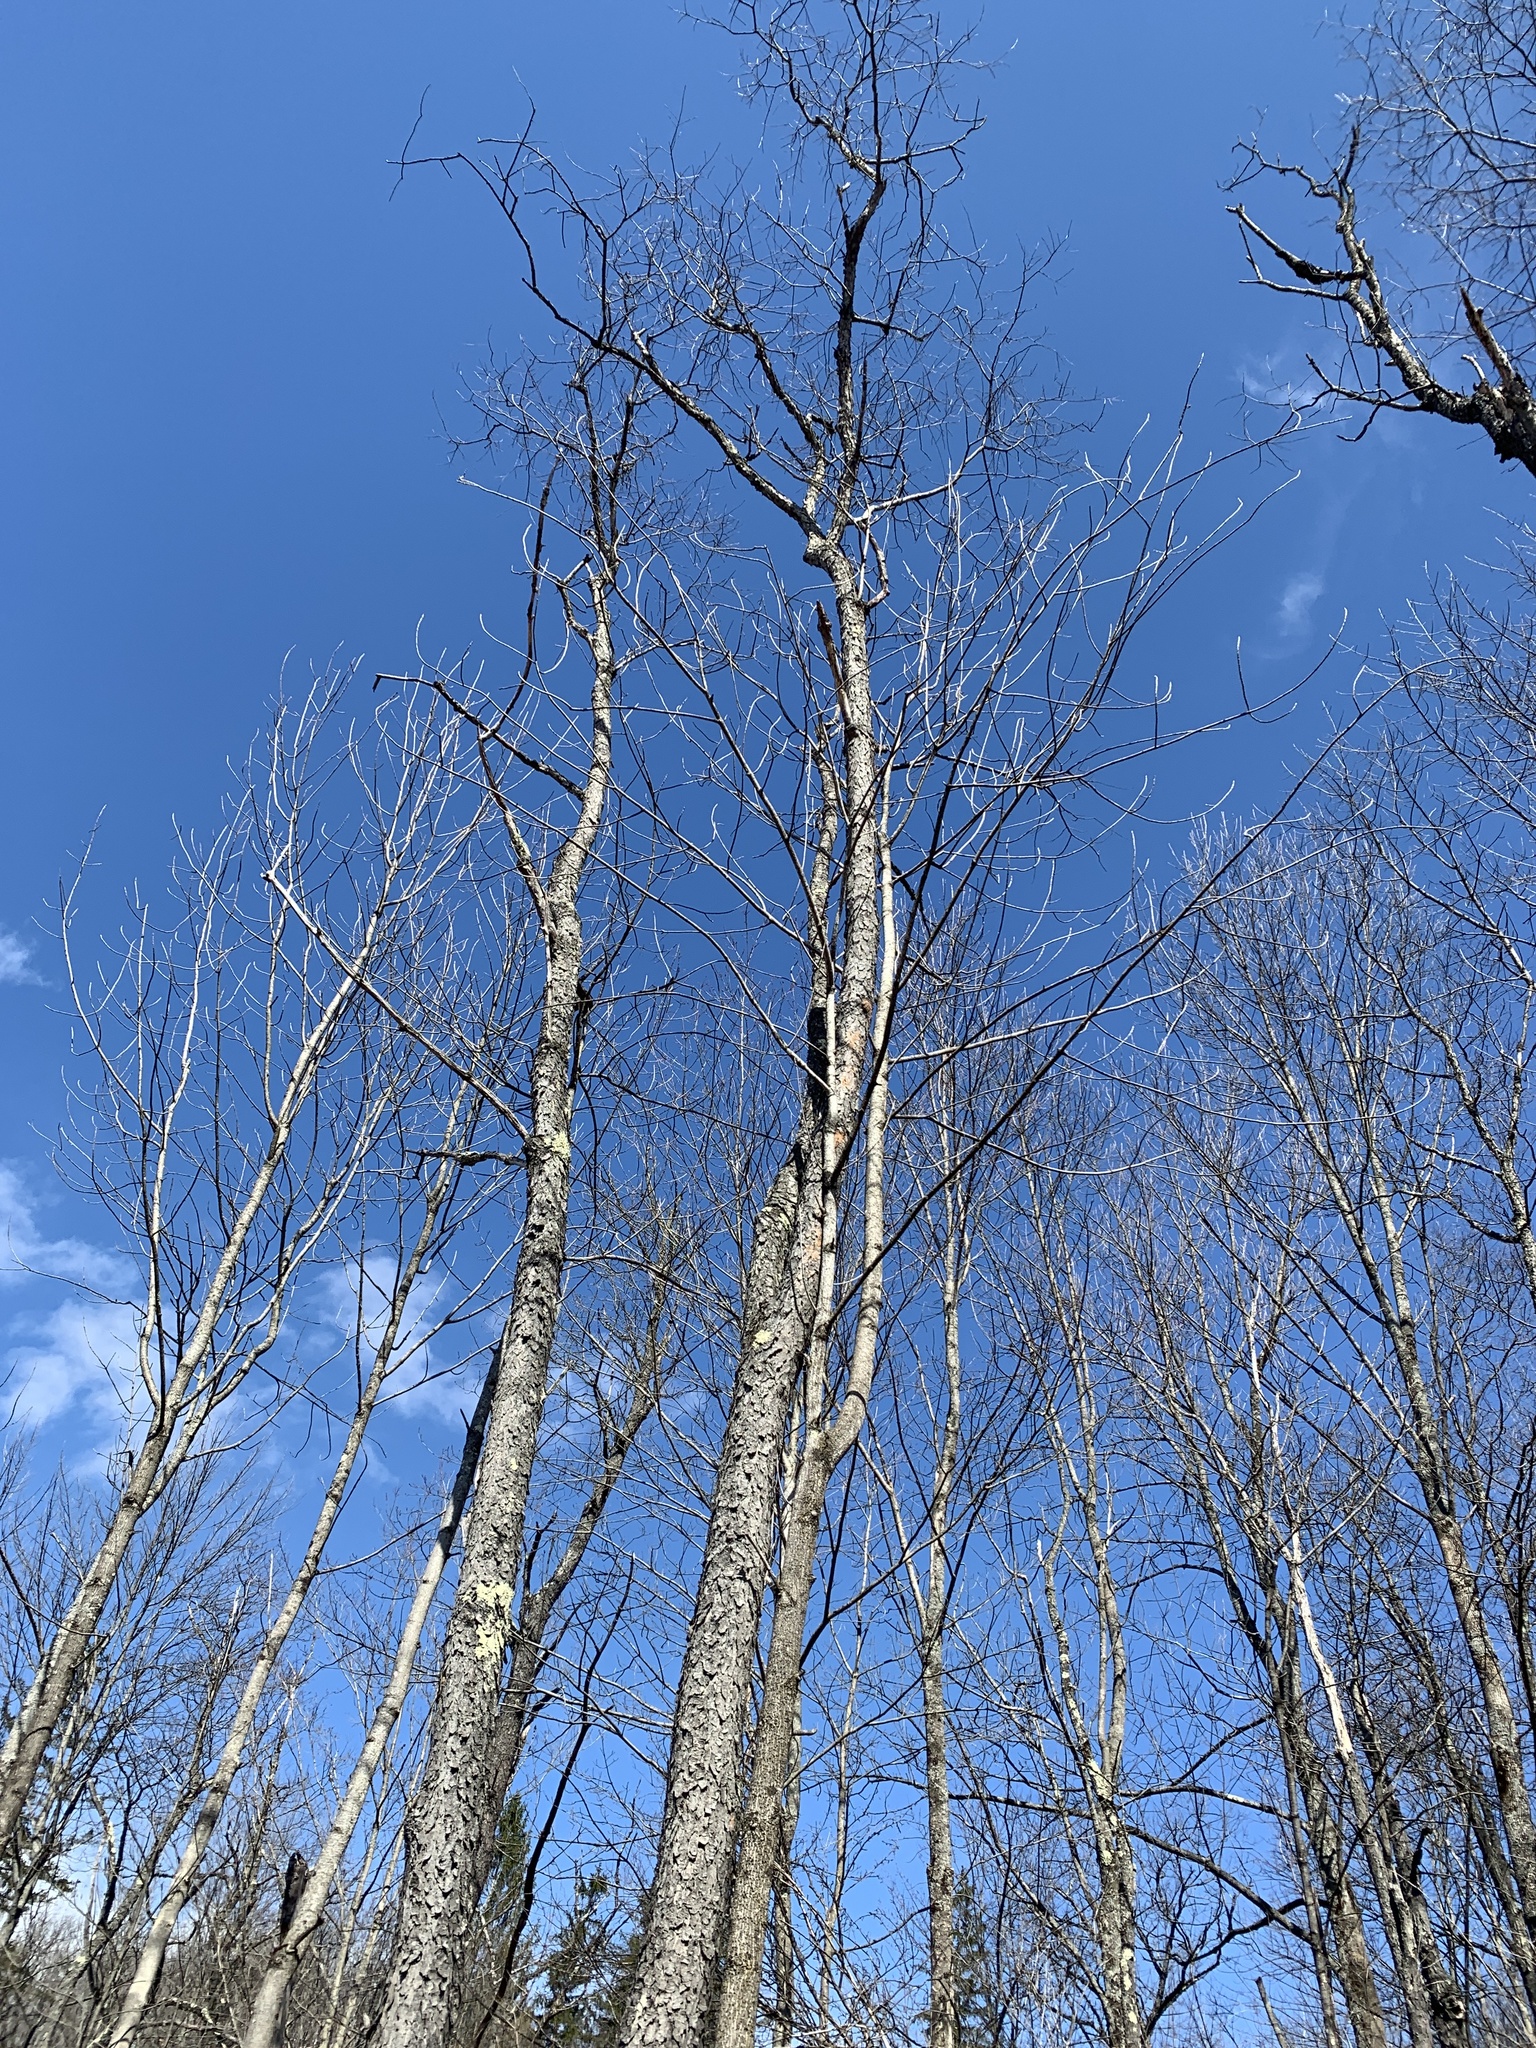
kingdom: Plantae
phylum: Tracheophyta
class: Magnoliopsida
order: Rosales
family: Rosaceae
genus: Prunus
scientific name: Prunus serotina
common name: Black cherry
